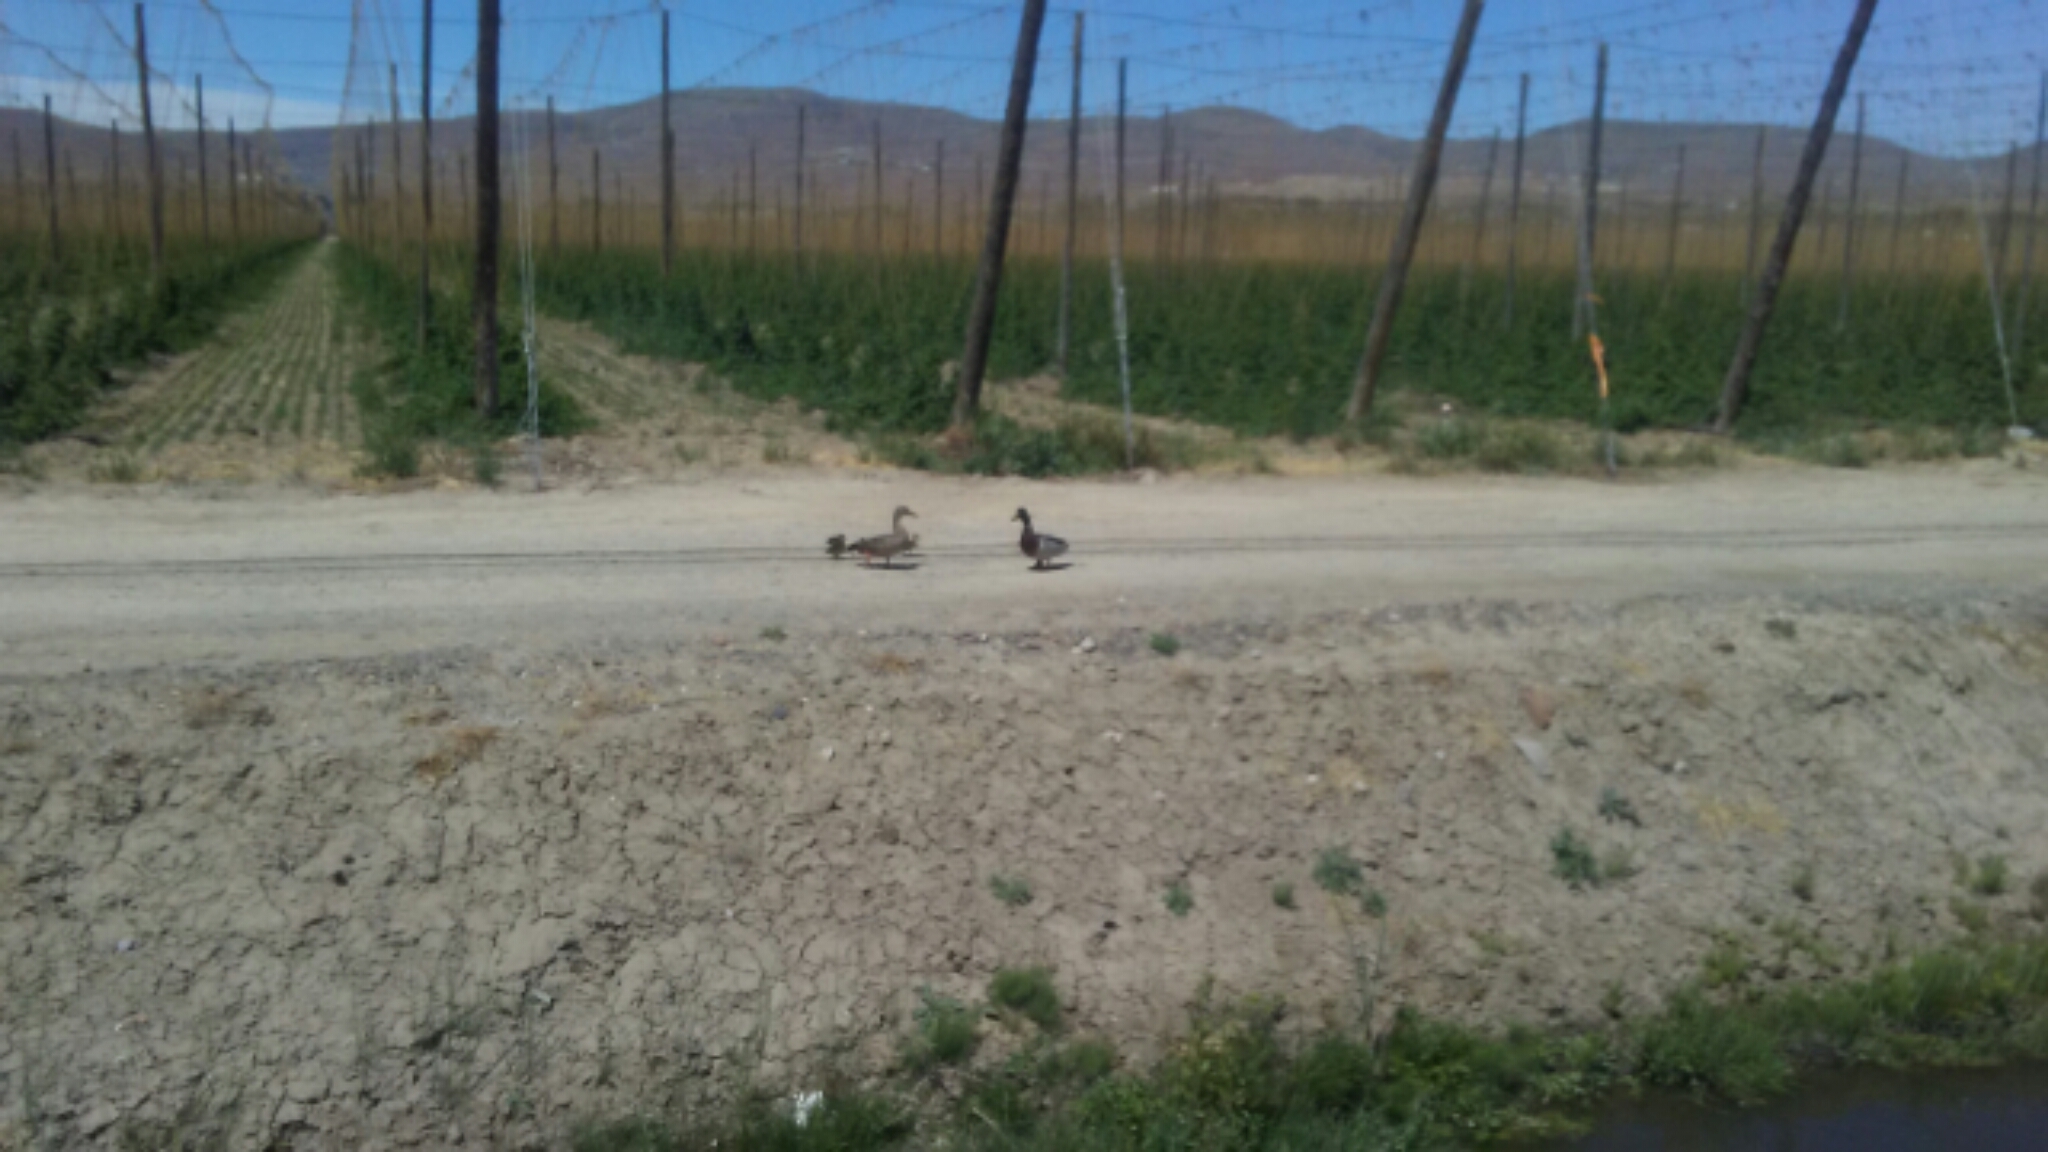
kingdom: Animalia
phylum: Chordata
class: Aves
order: Anseriformes
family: Anatidae
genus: Anas
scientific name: Anas platyrhynchos
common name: Mallard
